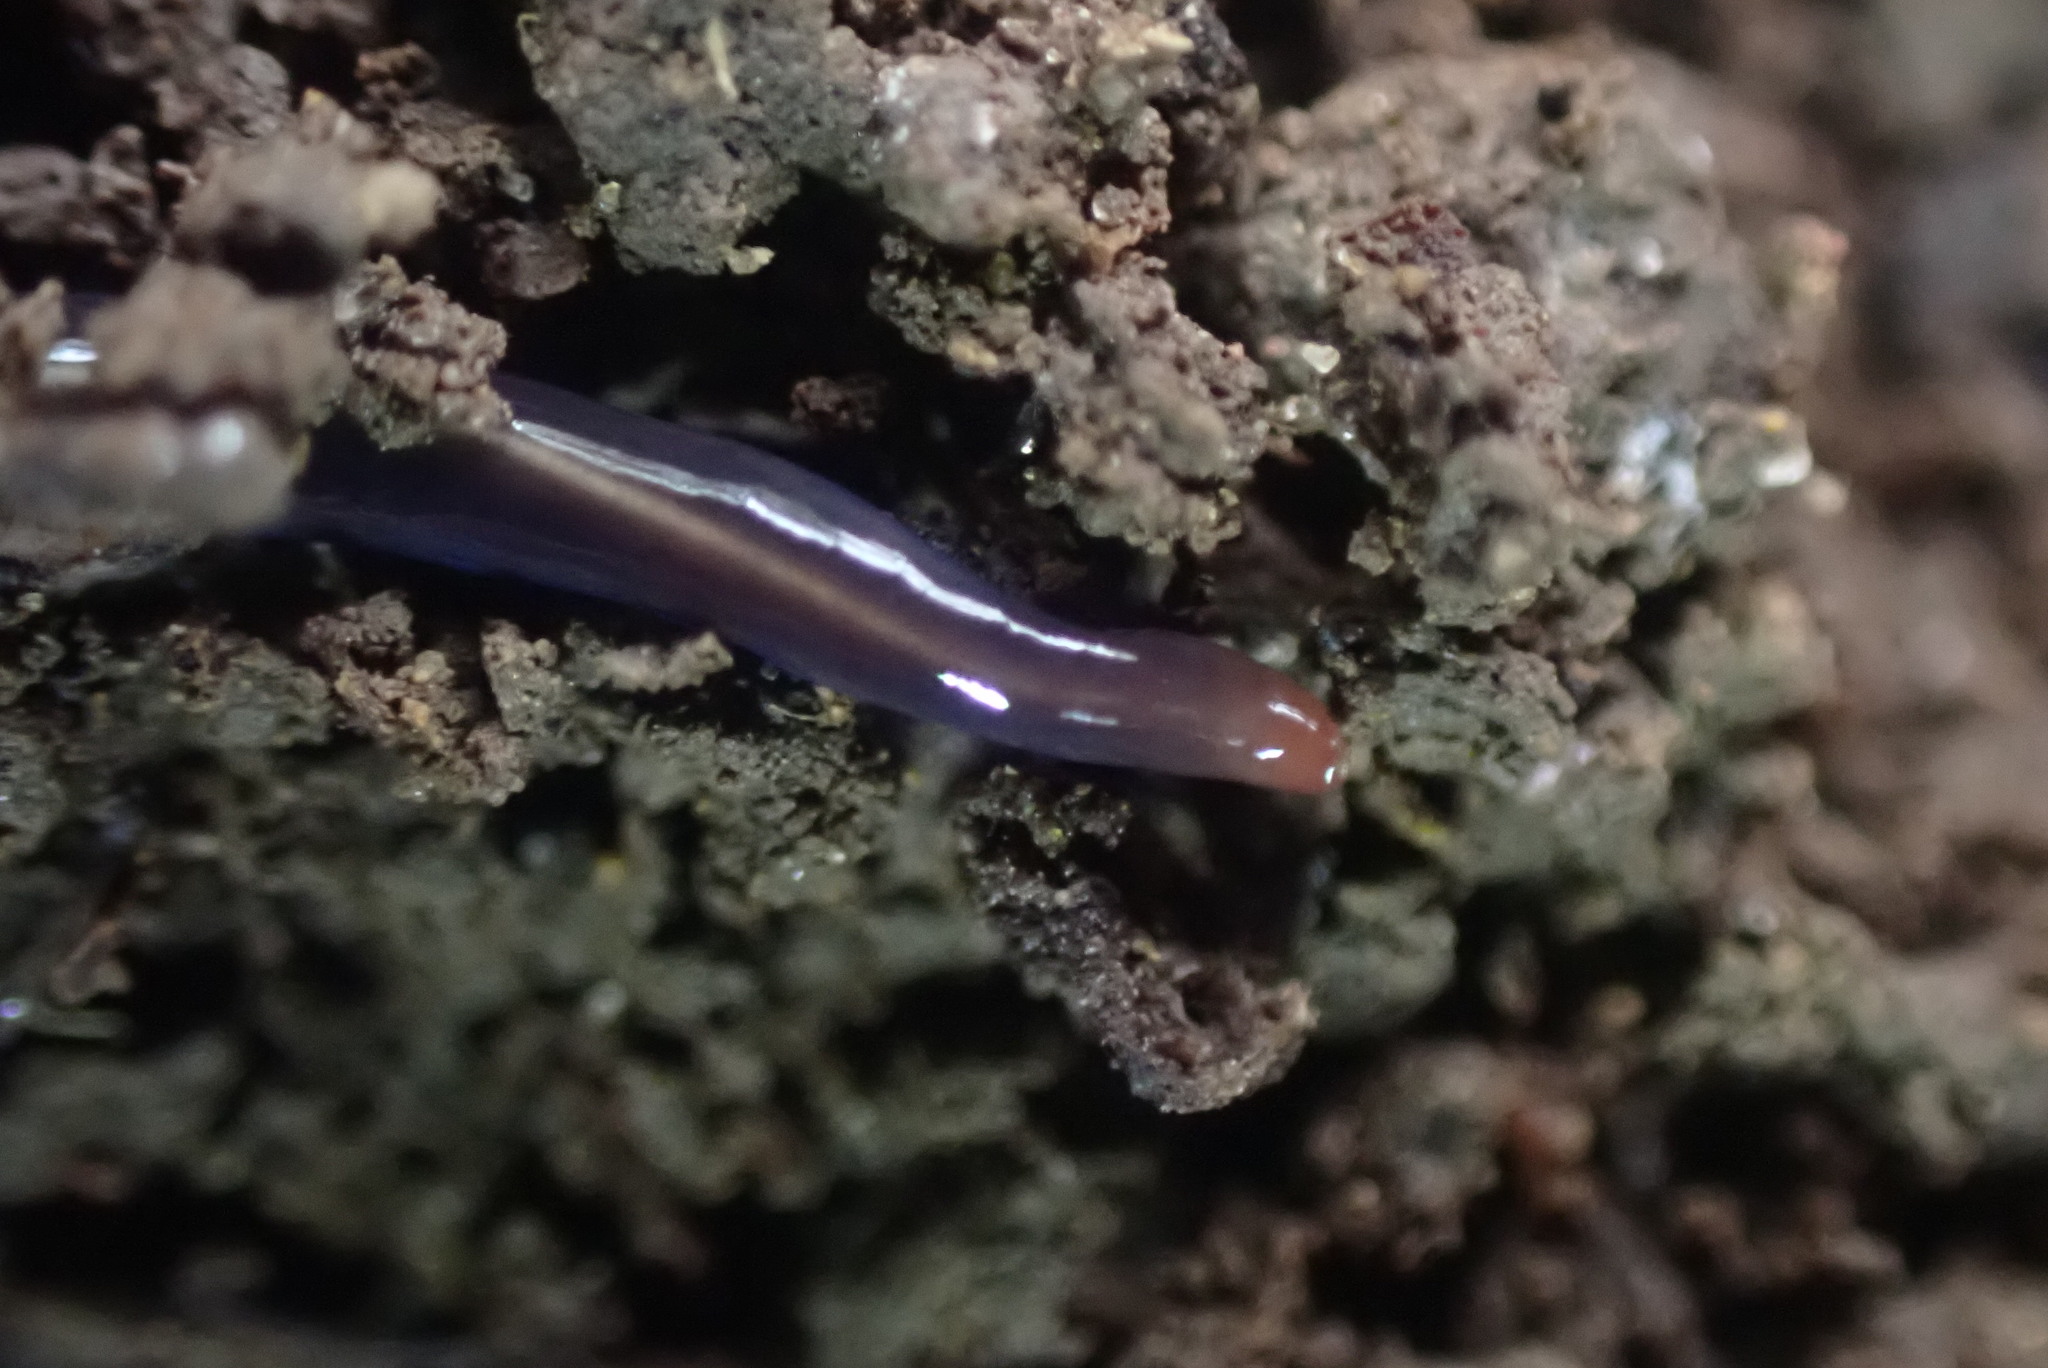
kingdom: Animalia
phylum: Platyhelminthes
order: Tricladida
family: Geoplanidae
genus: Caenoplana
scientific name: Caenoplana coerulea
